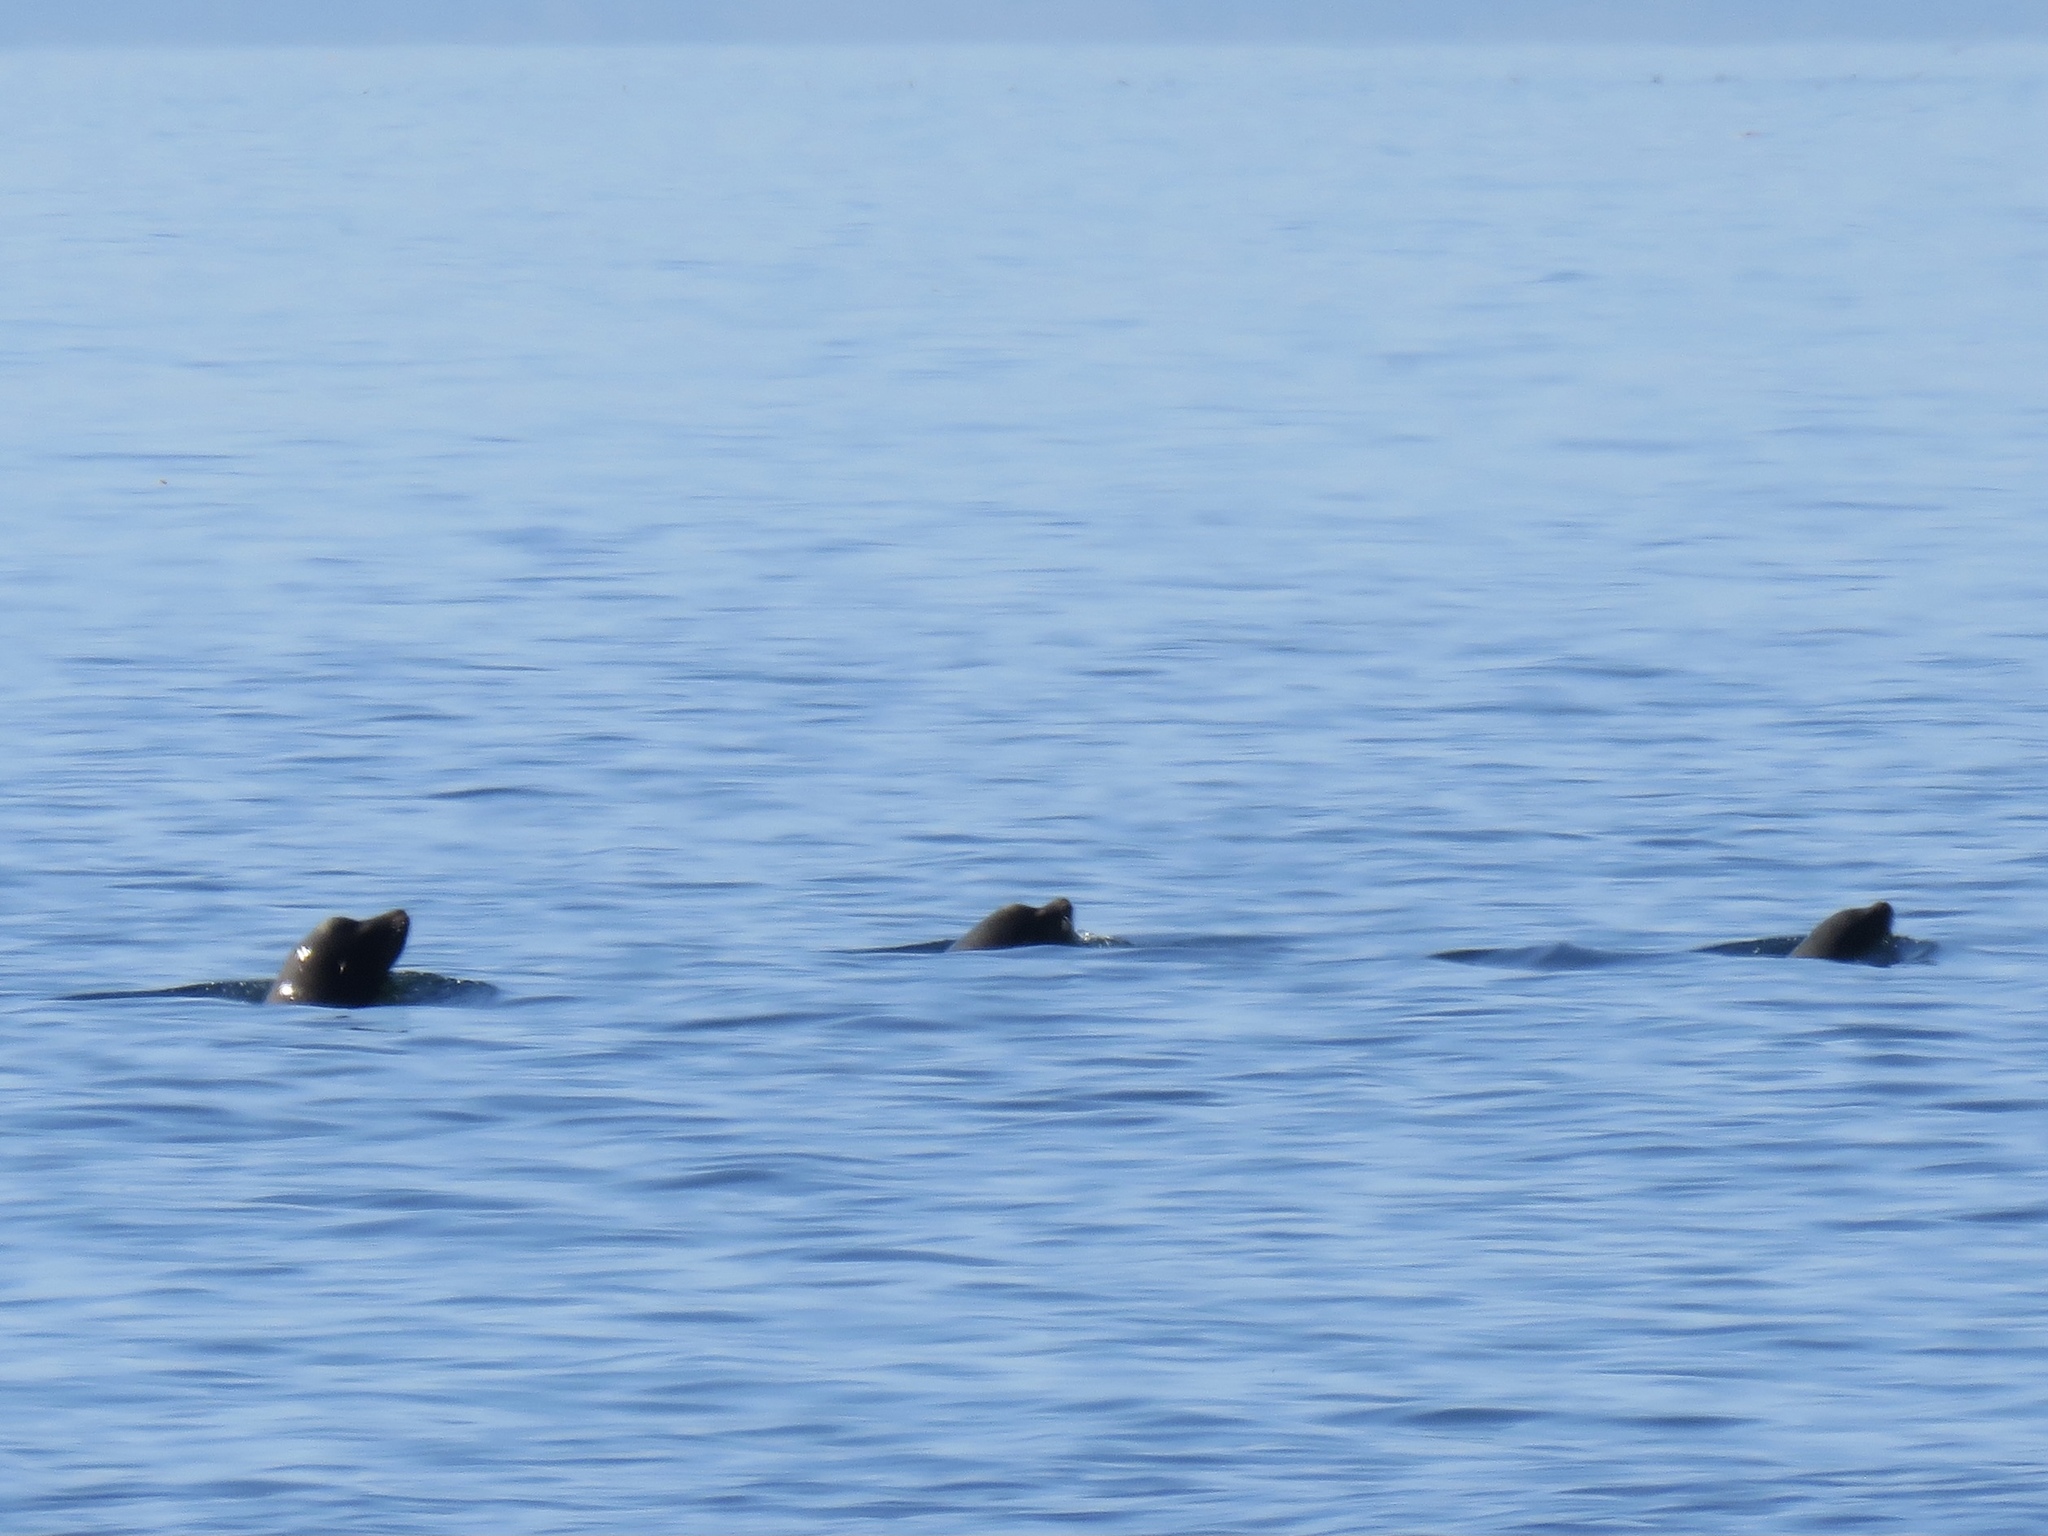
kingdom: Animalia
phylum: Chordata
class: Mammalia
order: Carnivora
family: Otariidae
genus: Zalophus
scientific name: Zalophus californianus
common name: California sea lion
